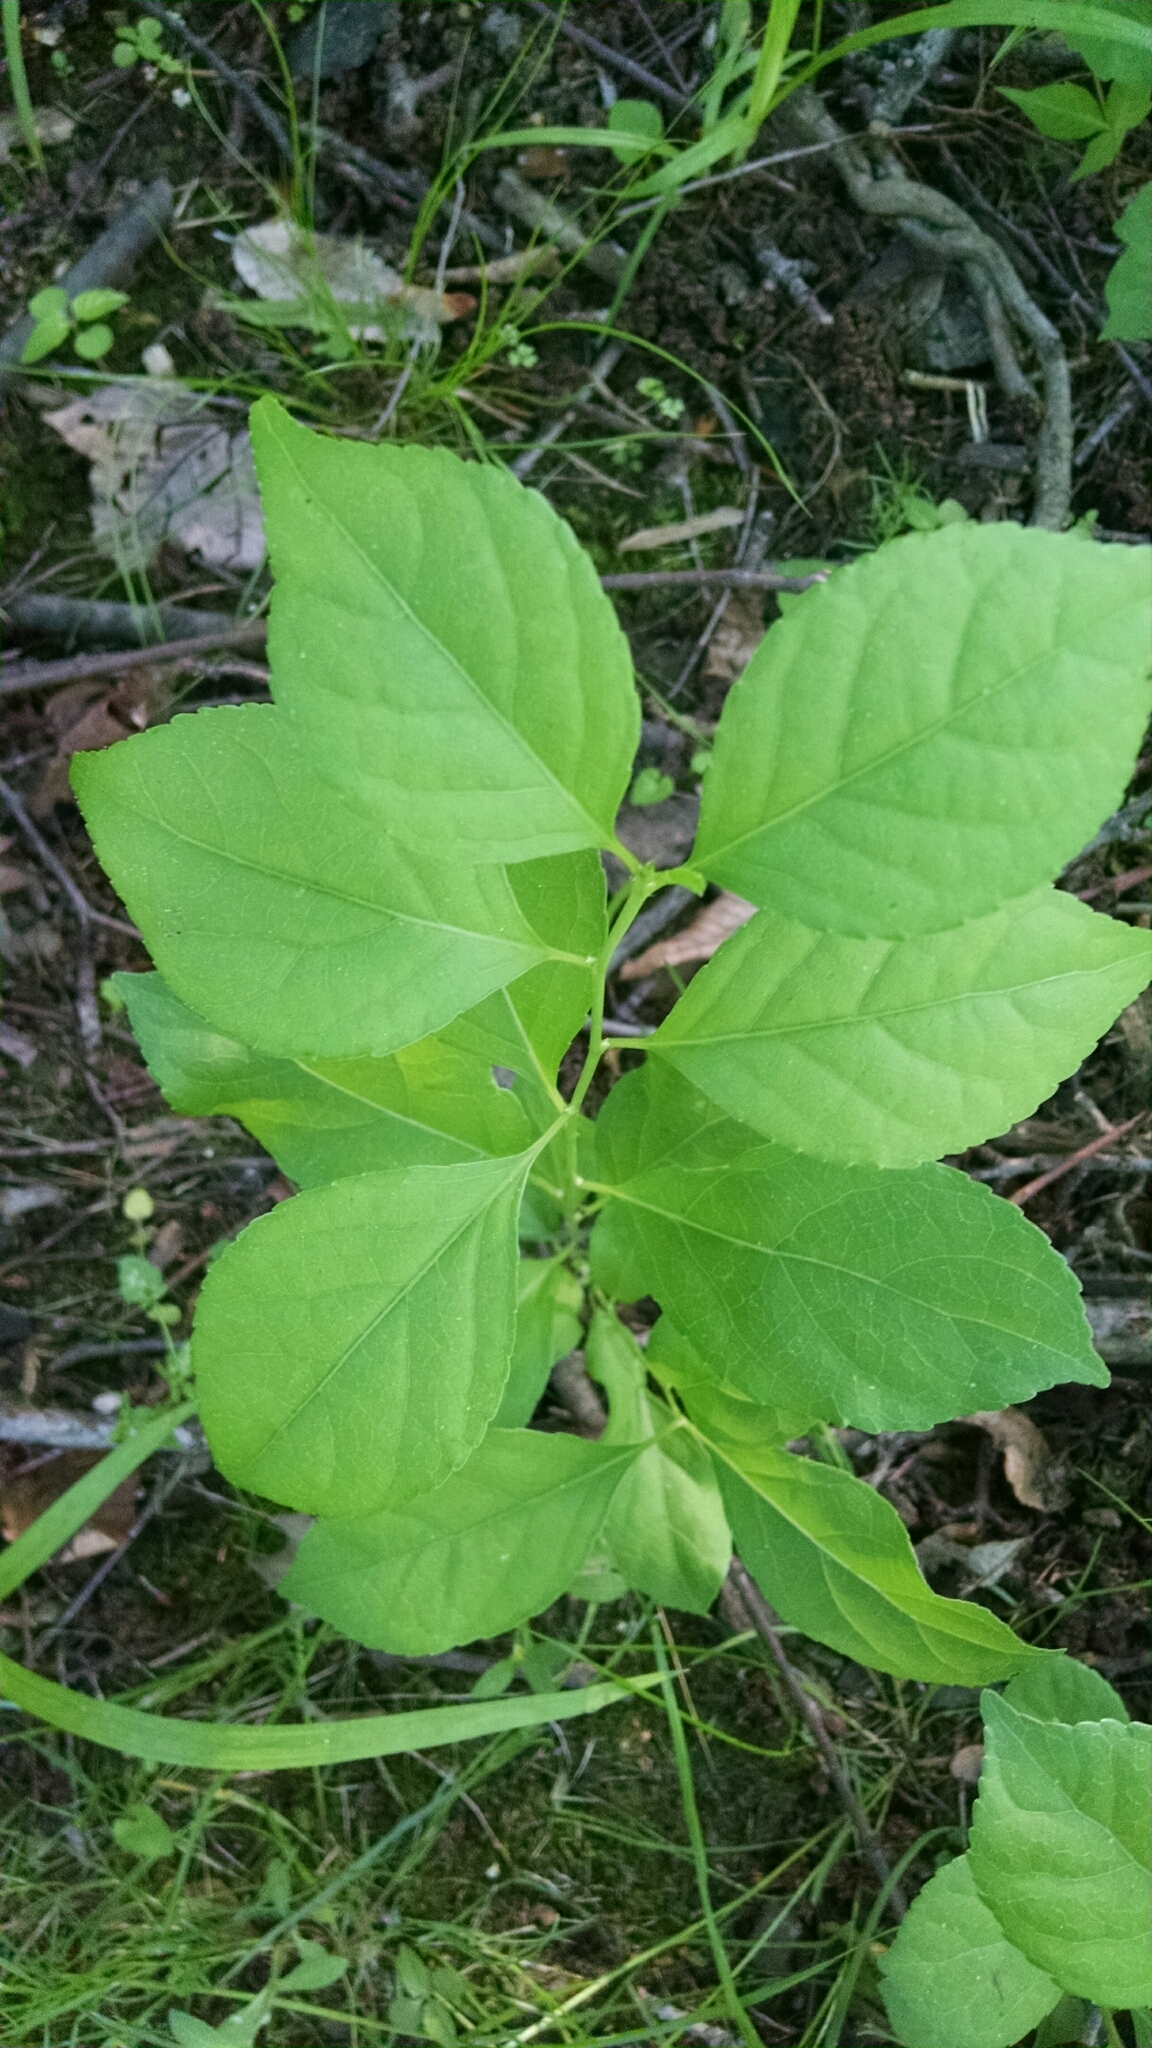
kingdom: Plantae
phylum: Tracheophyta
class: Magnoliopsida
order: Celastrales
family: Celastraceae
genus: Celastrus
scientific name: Celastrus orbiculatus
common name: Oriental bittersweet
